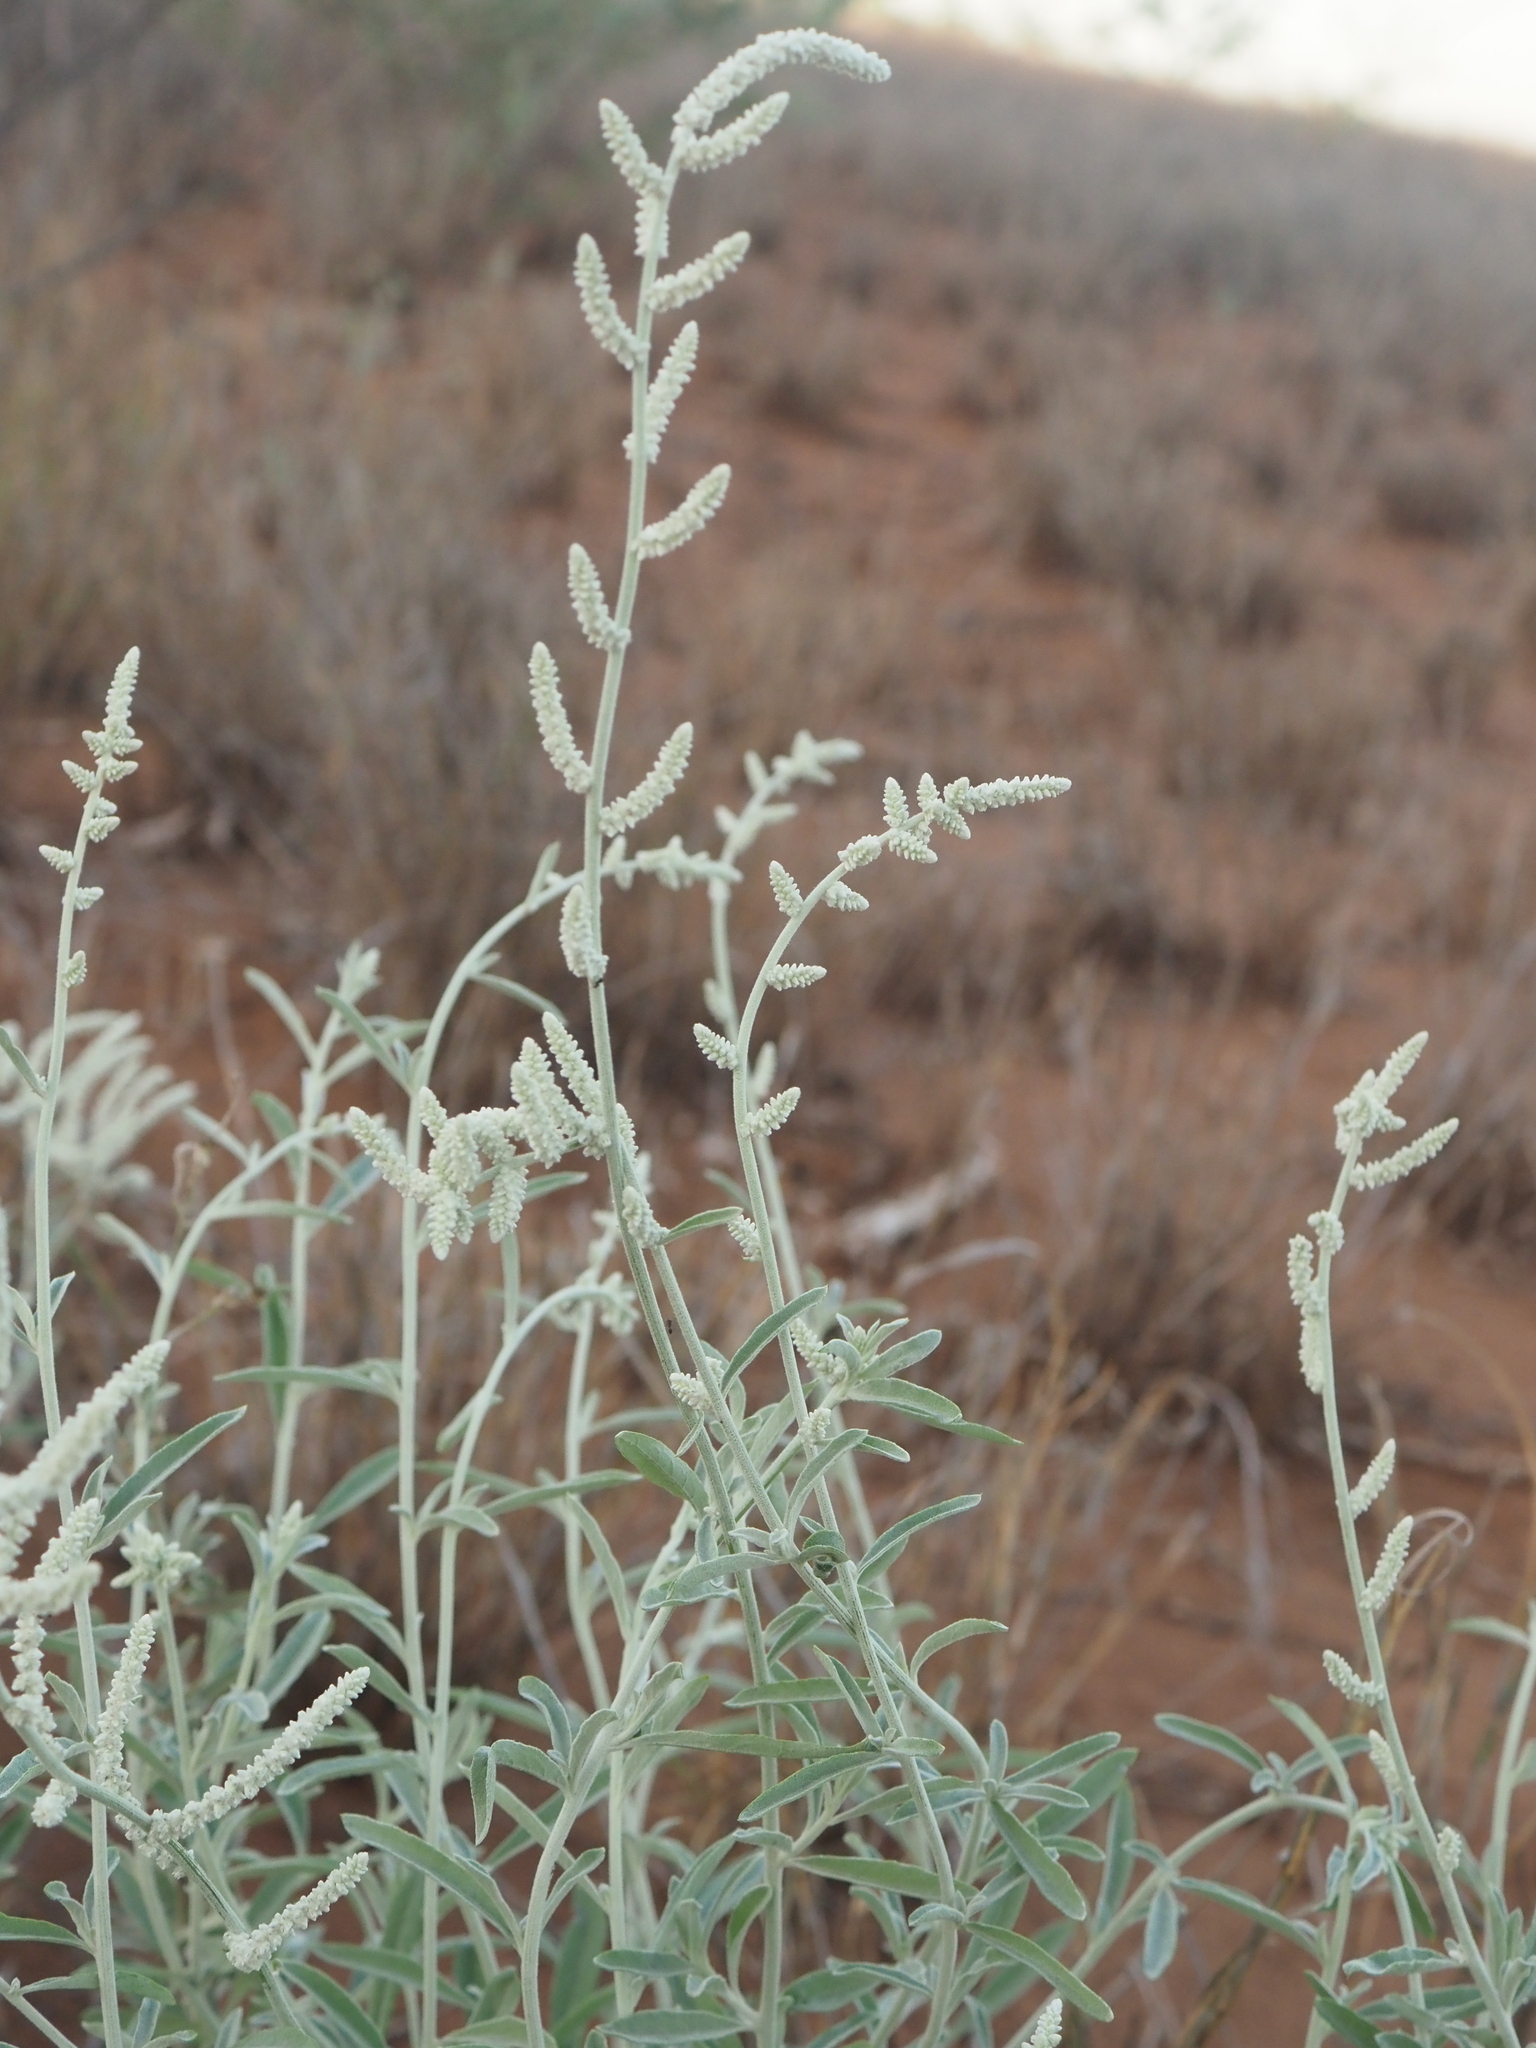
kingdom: Plantae
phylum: Tracheophyta
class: Magnoliopsida
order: Caryophyllales
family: Amaranthaceae
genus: Aerva
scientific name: Aerva javanica
